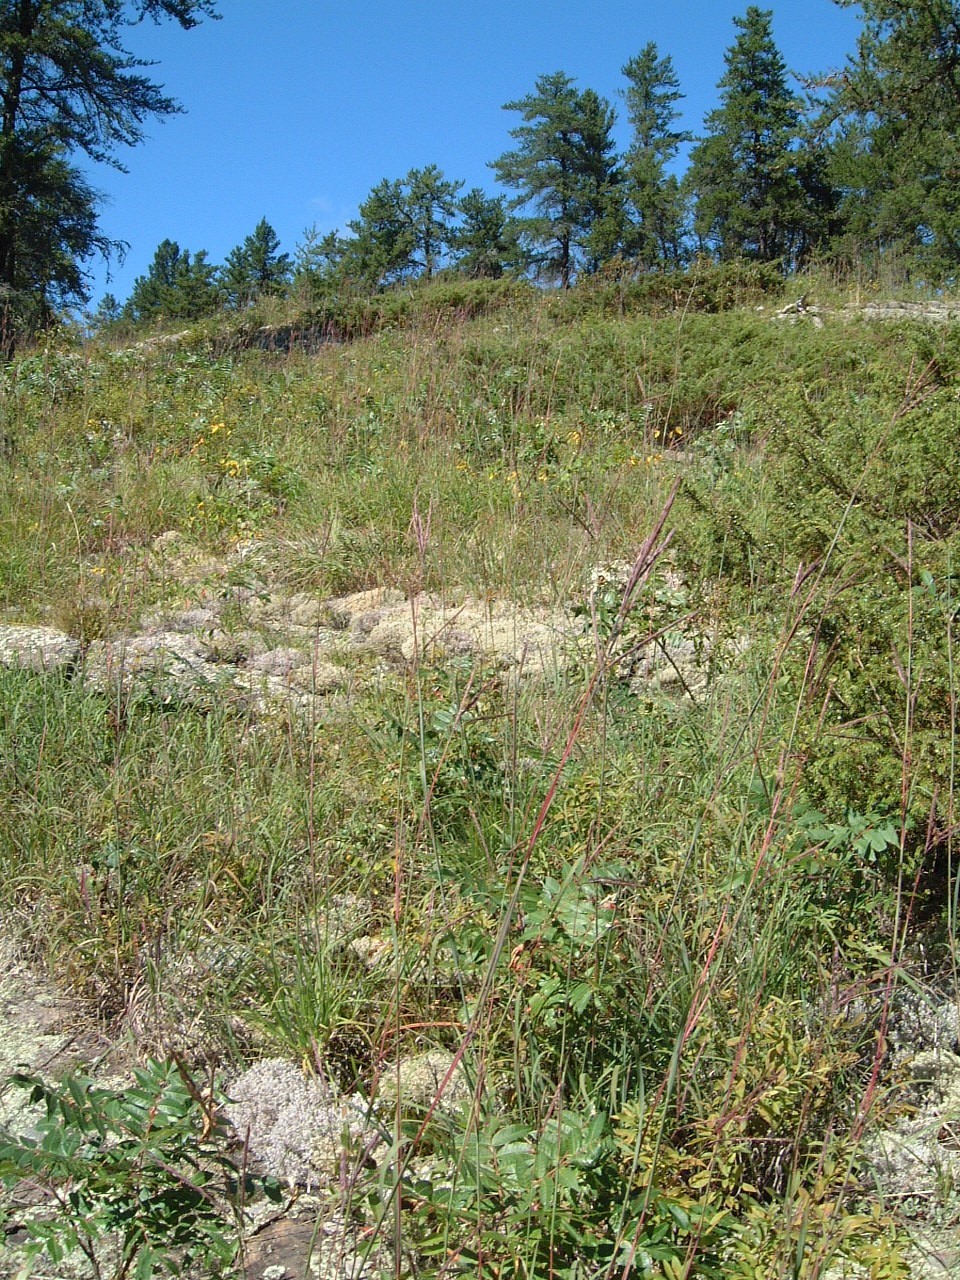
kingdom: Plantae
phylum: Tracheophyta
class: Liliopsida
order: Poales
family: Poaceae
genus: Andropogon
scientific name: Andropogon gerardi
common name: Big bluestem
